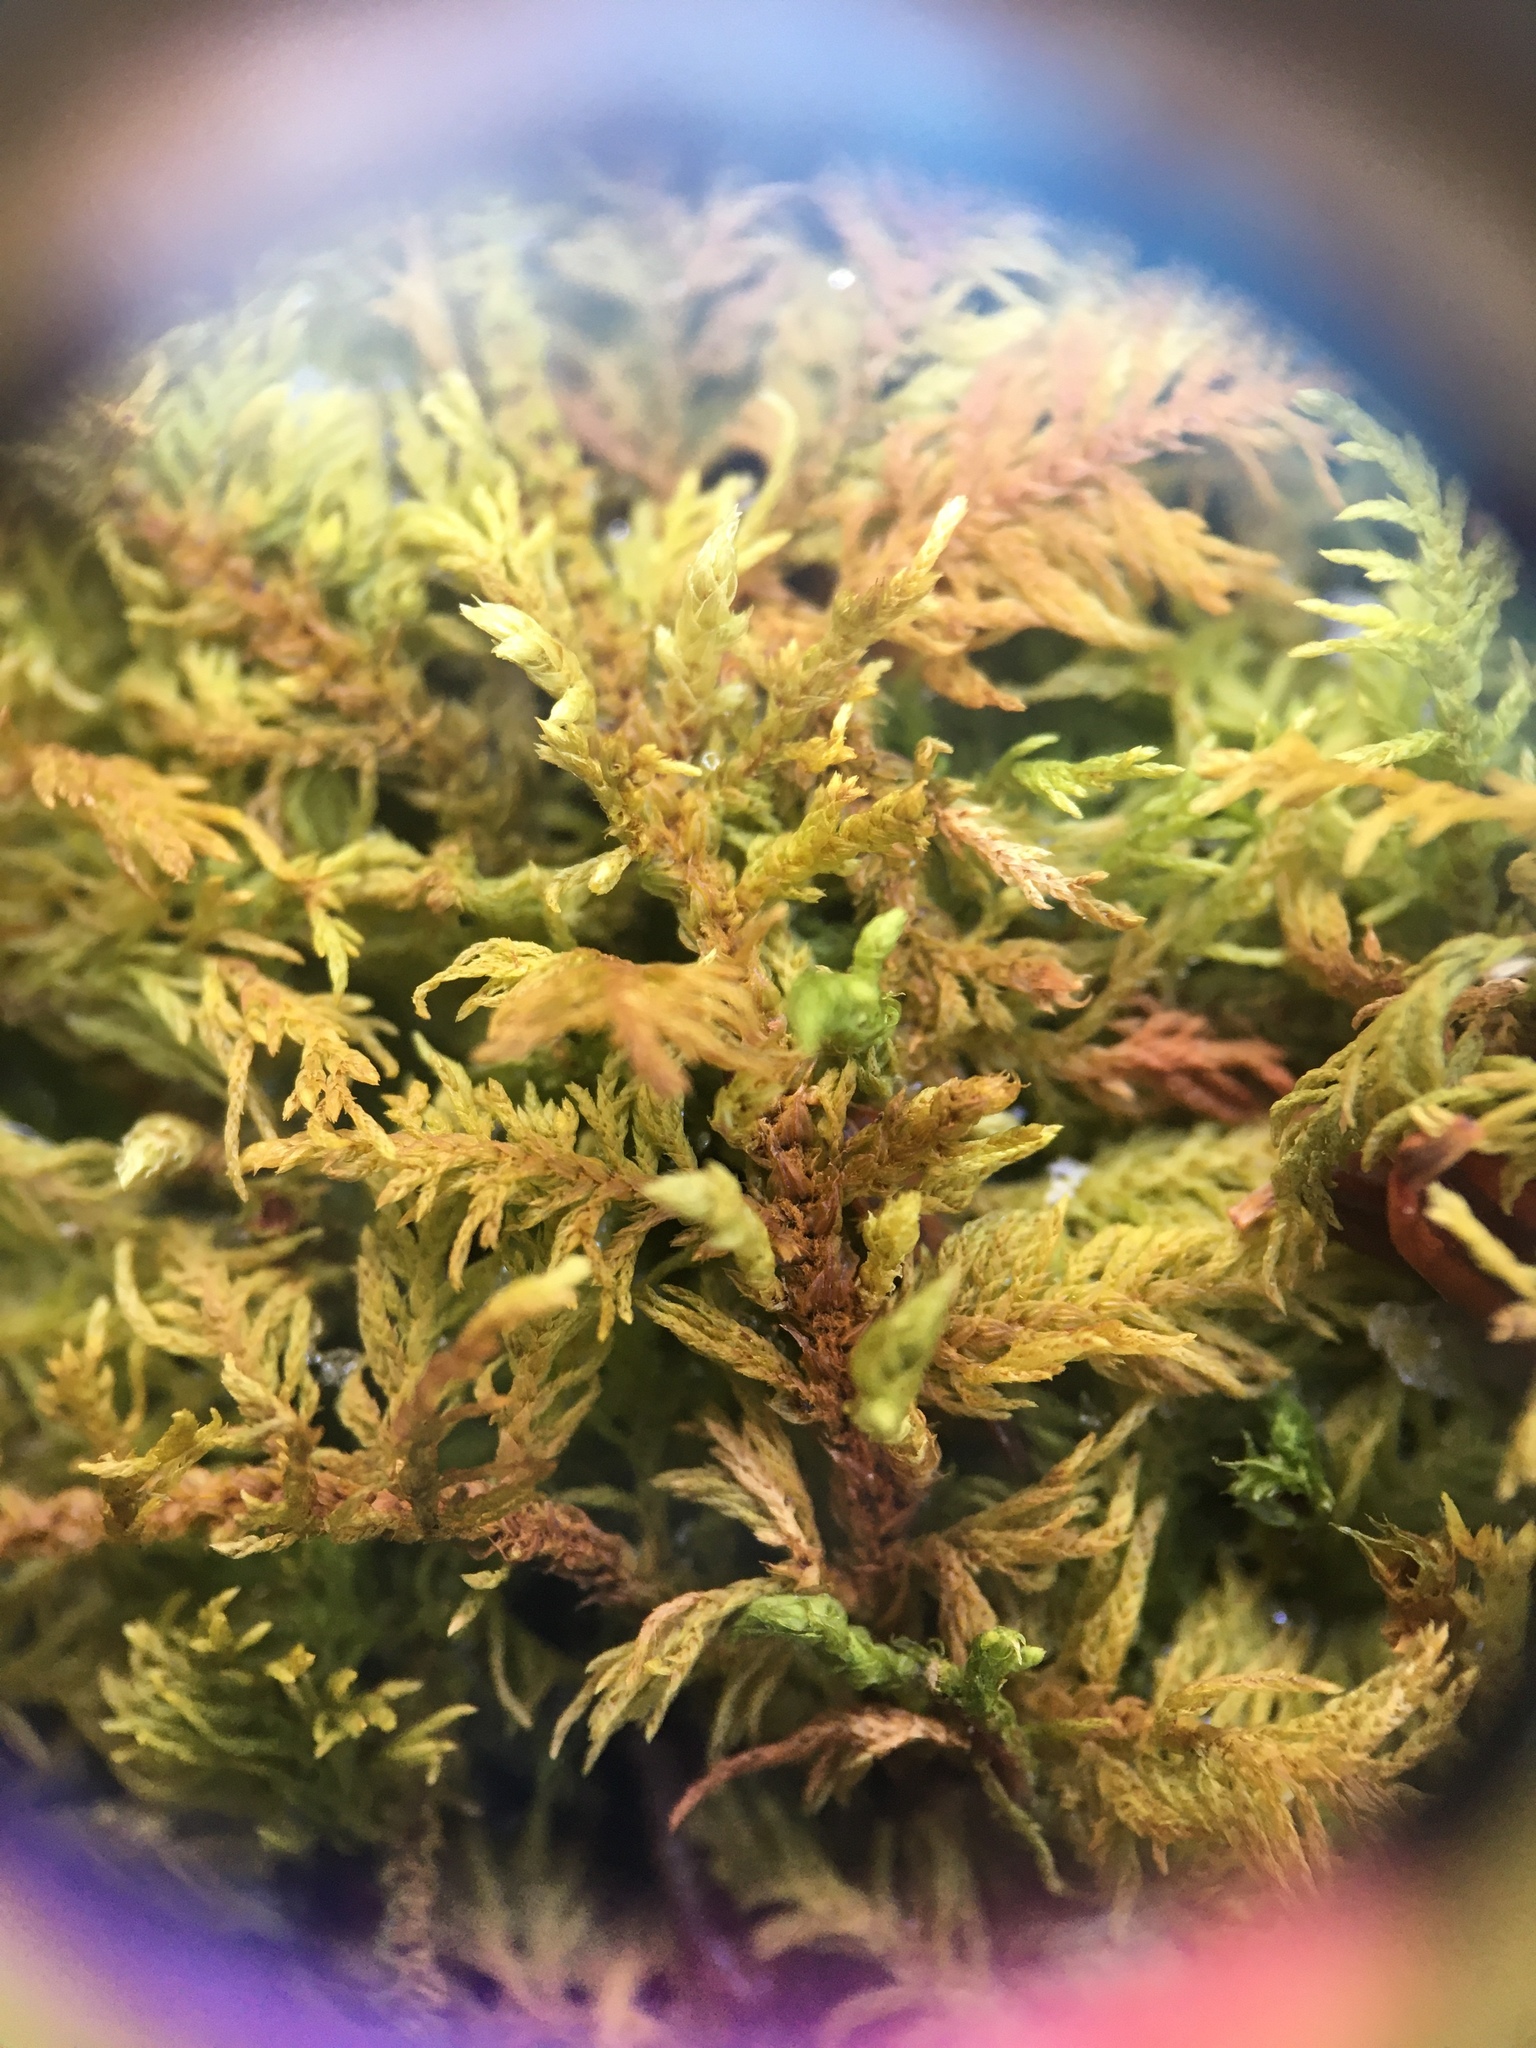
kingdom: Plantae
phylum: Bryophyta
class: Bryopsida
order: Hypnales
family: Thuidiaceae
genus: Thuidium
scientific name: Thuidium delicatulum
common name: Delicate fern moss
